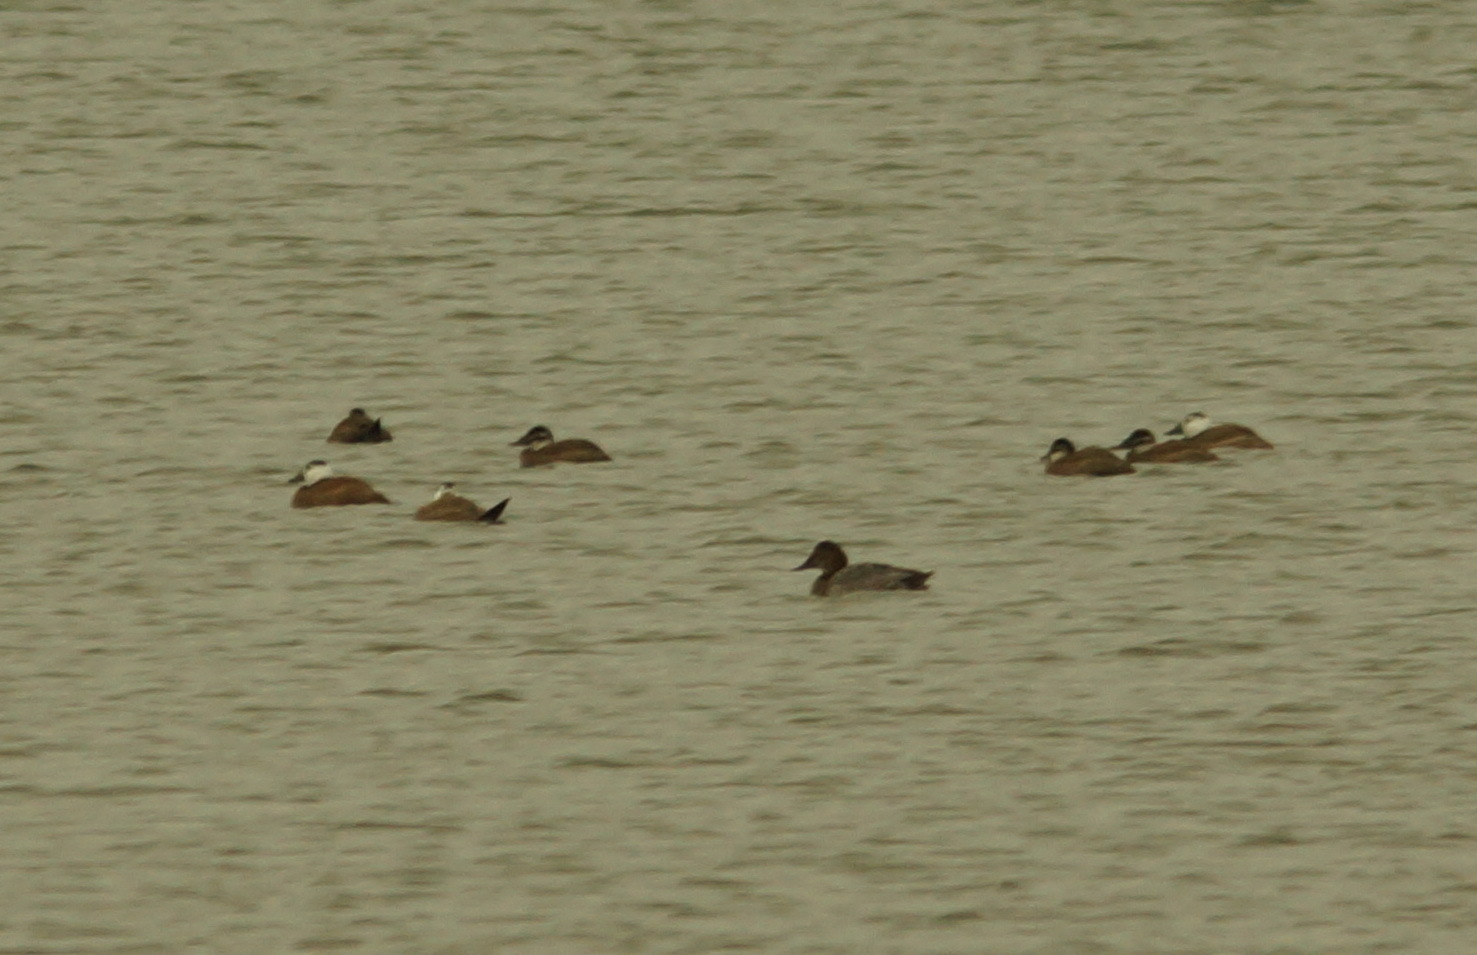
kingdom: Animalia
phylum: Chordata
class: Aves
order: Anseriformes
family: Anatidae
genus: Aythya
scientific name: Aythya ferina
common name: Common pochard
